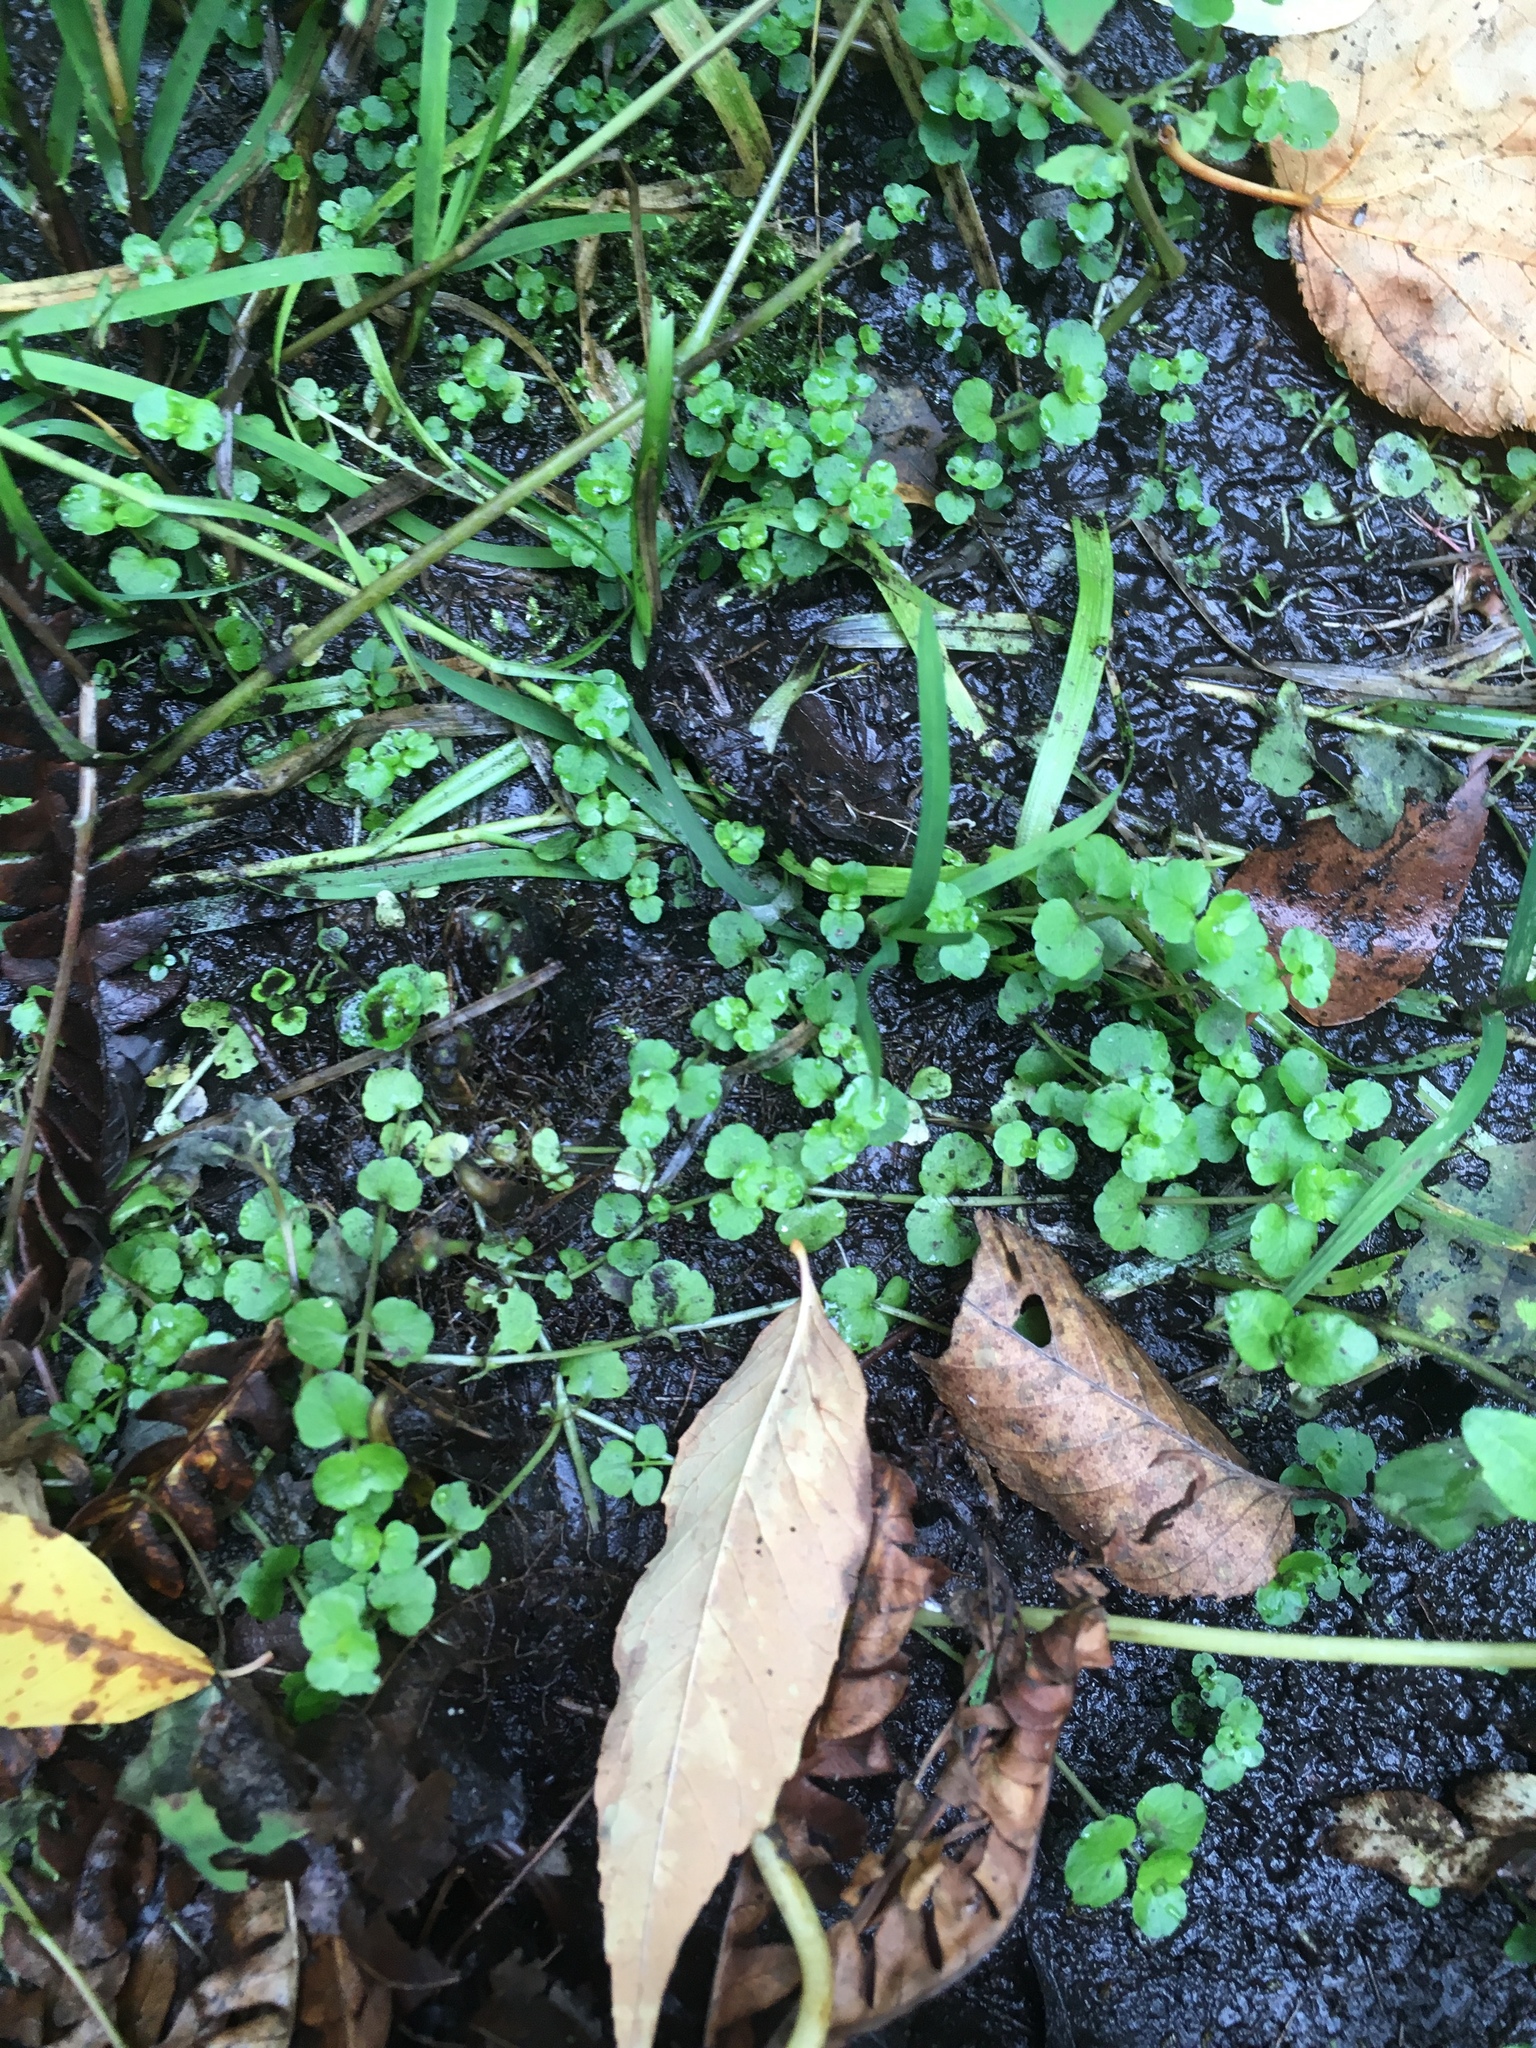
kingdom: Plantae
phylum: Tracheophyta
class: Magnoliopsida
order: Saxifragales
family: Saxifragaceae
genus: Chrysosplenium
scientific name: Chrysosplenium americanum
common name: American golden-saxifrage
